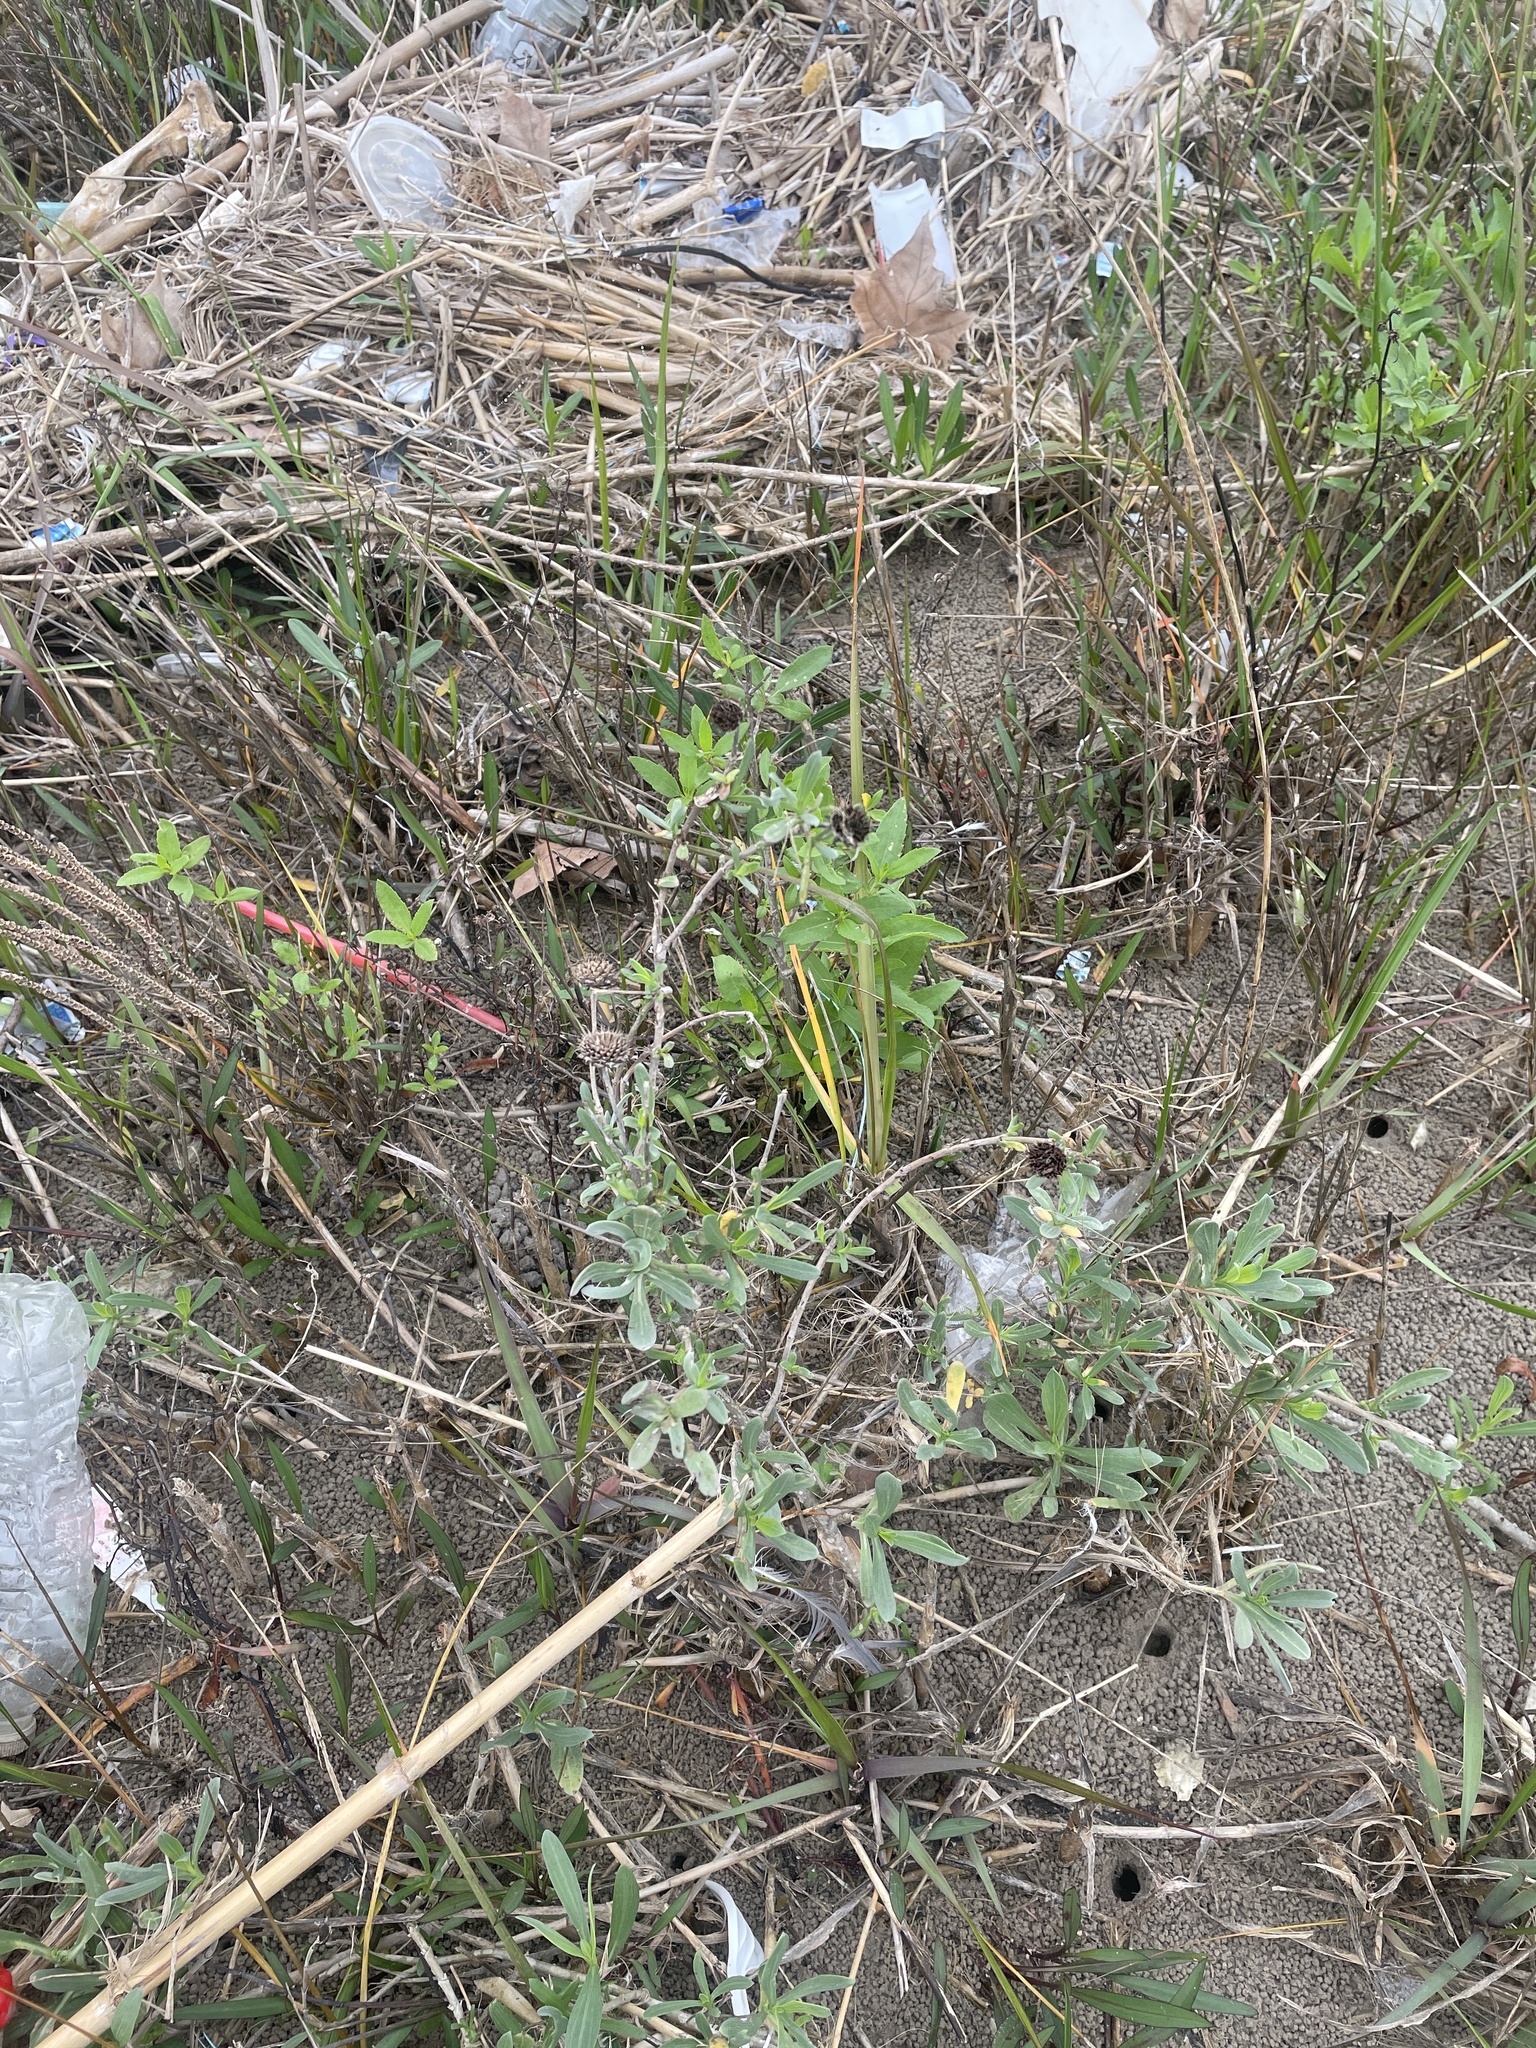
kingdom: Plantae
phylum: Tracheophyta
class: Magnoliopsida
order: Asterales
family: Asteraceae
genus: Borrichia
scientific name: Borrichia frutescens
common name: Sea oxeye
